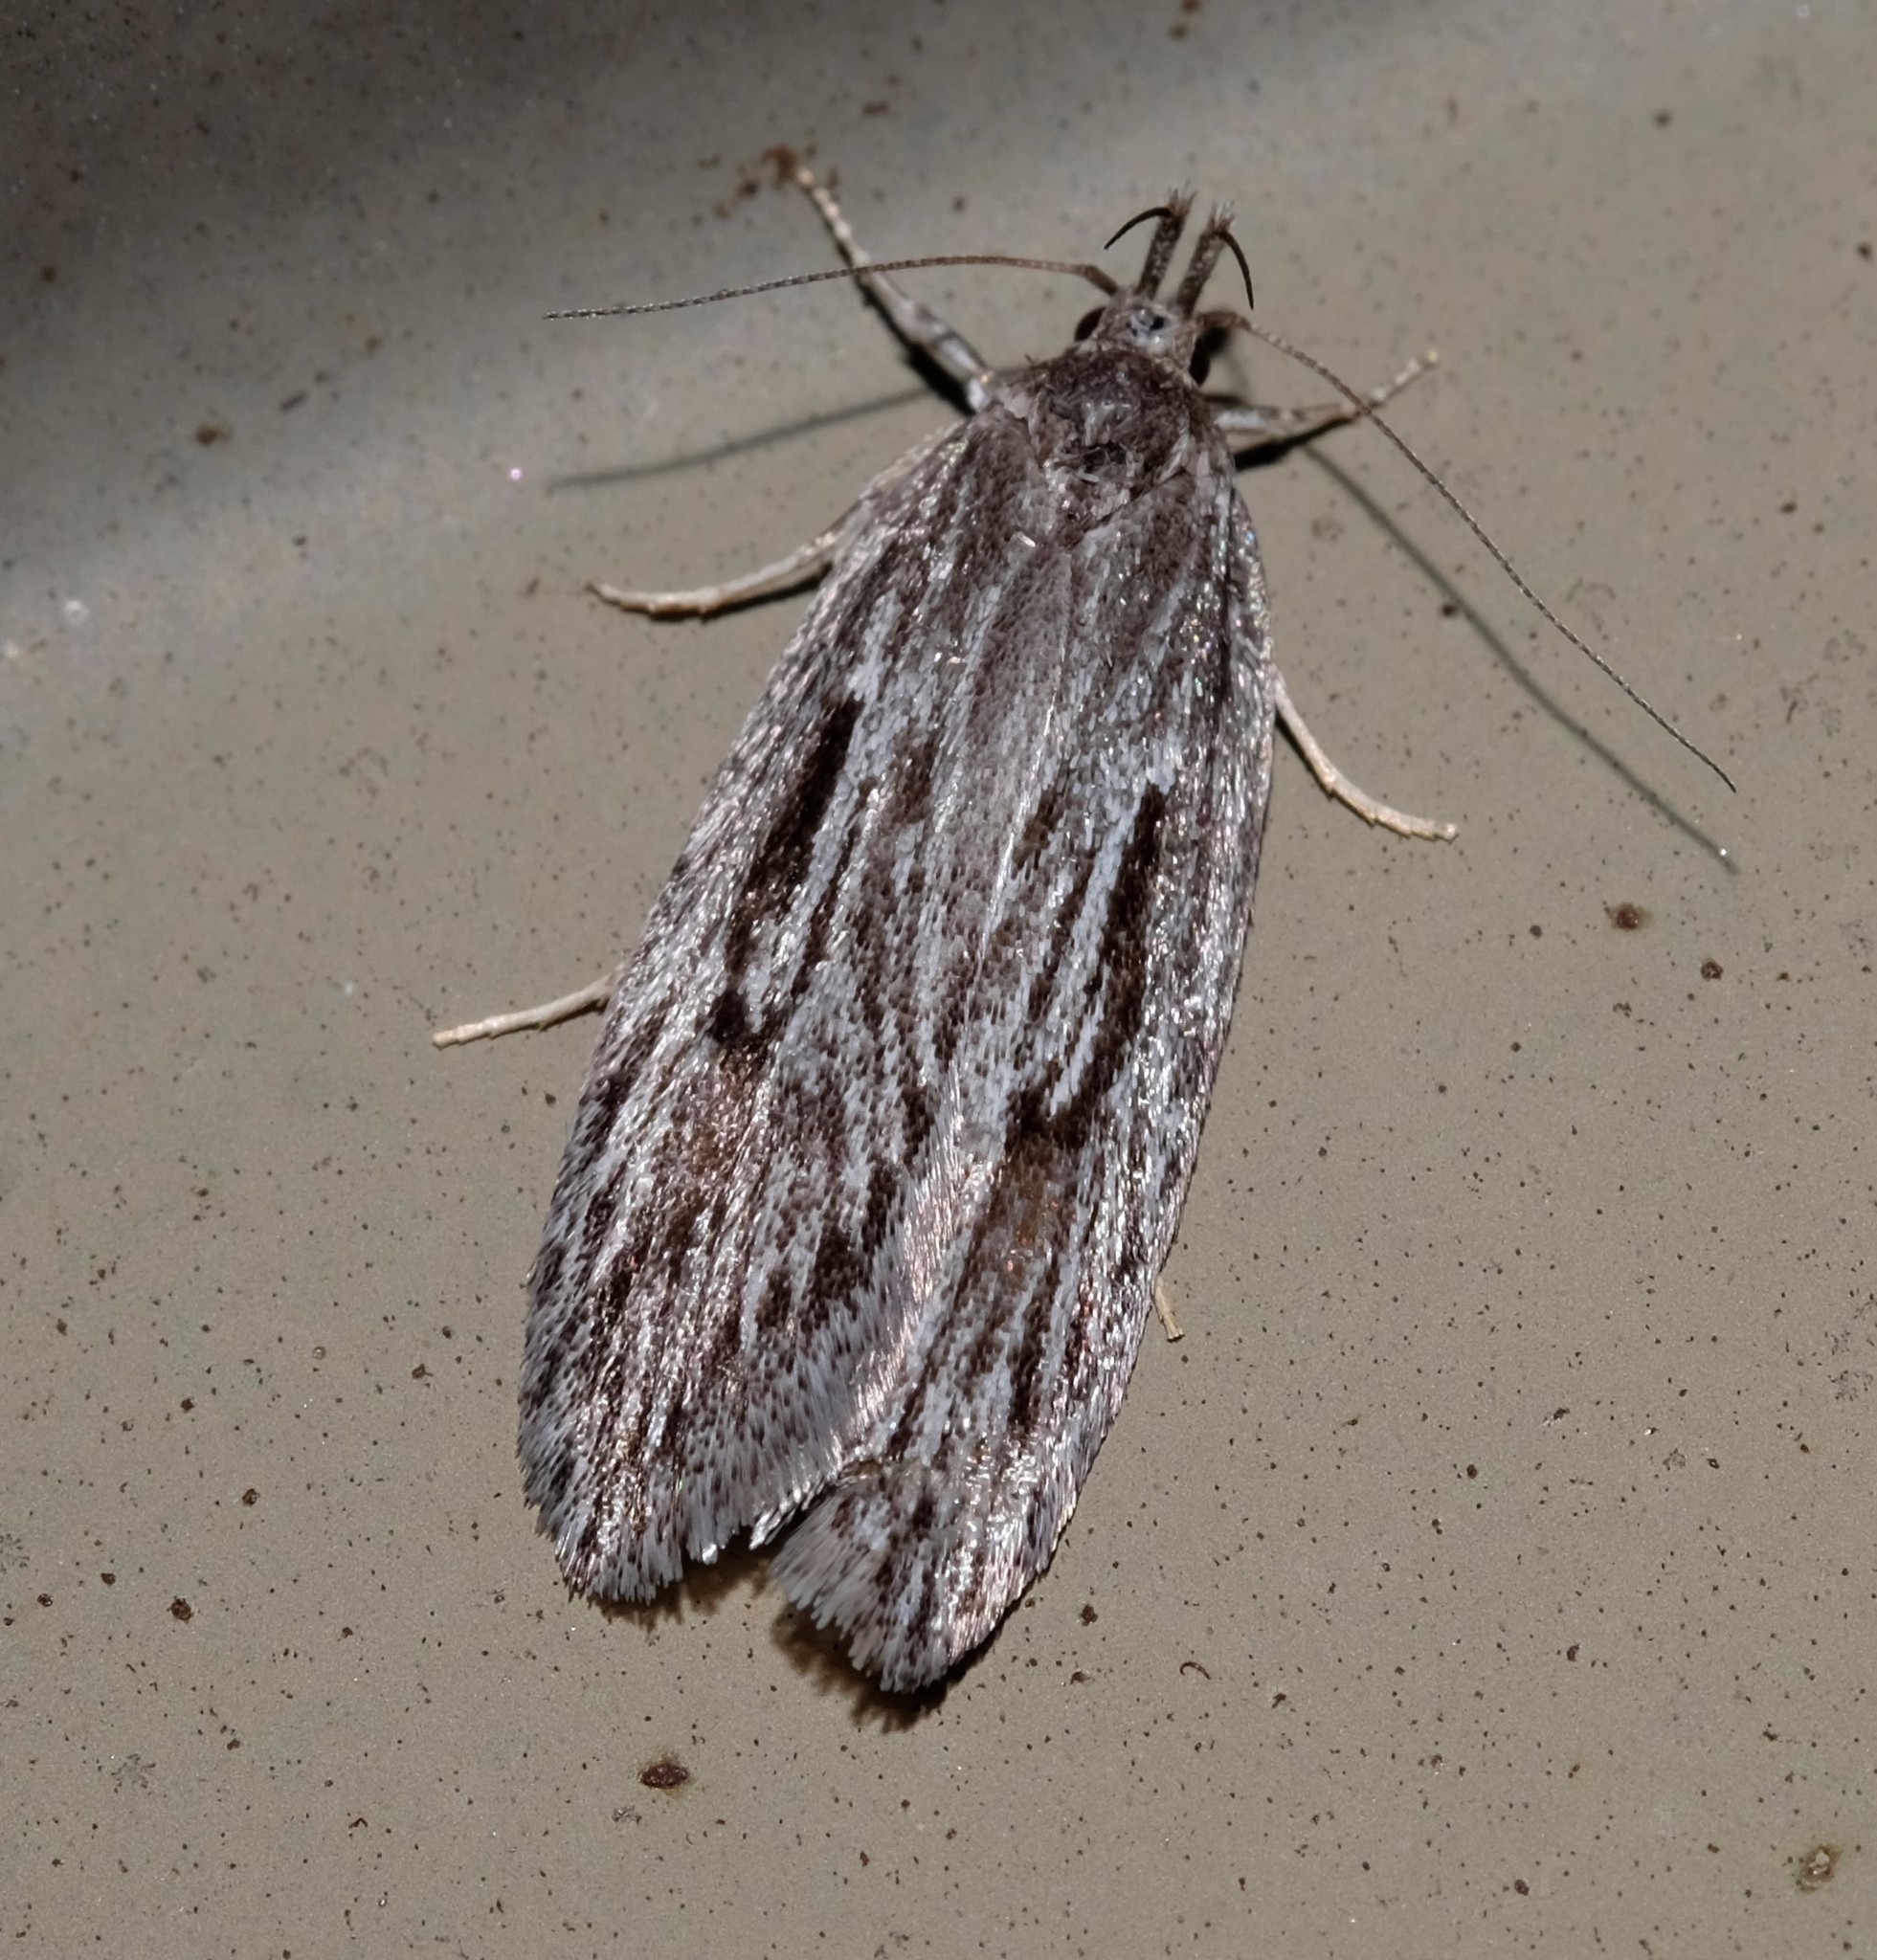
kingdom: Animalia
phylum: Arthropoda
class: Insecta
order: Lepidoptera
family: Oecophoridae
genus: Anomozancla
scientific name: Anomozancla scopariella
